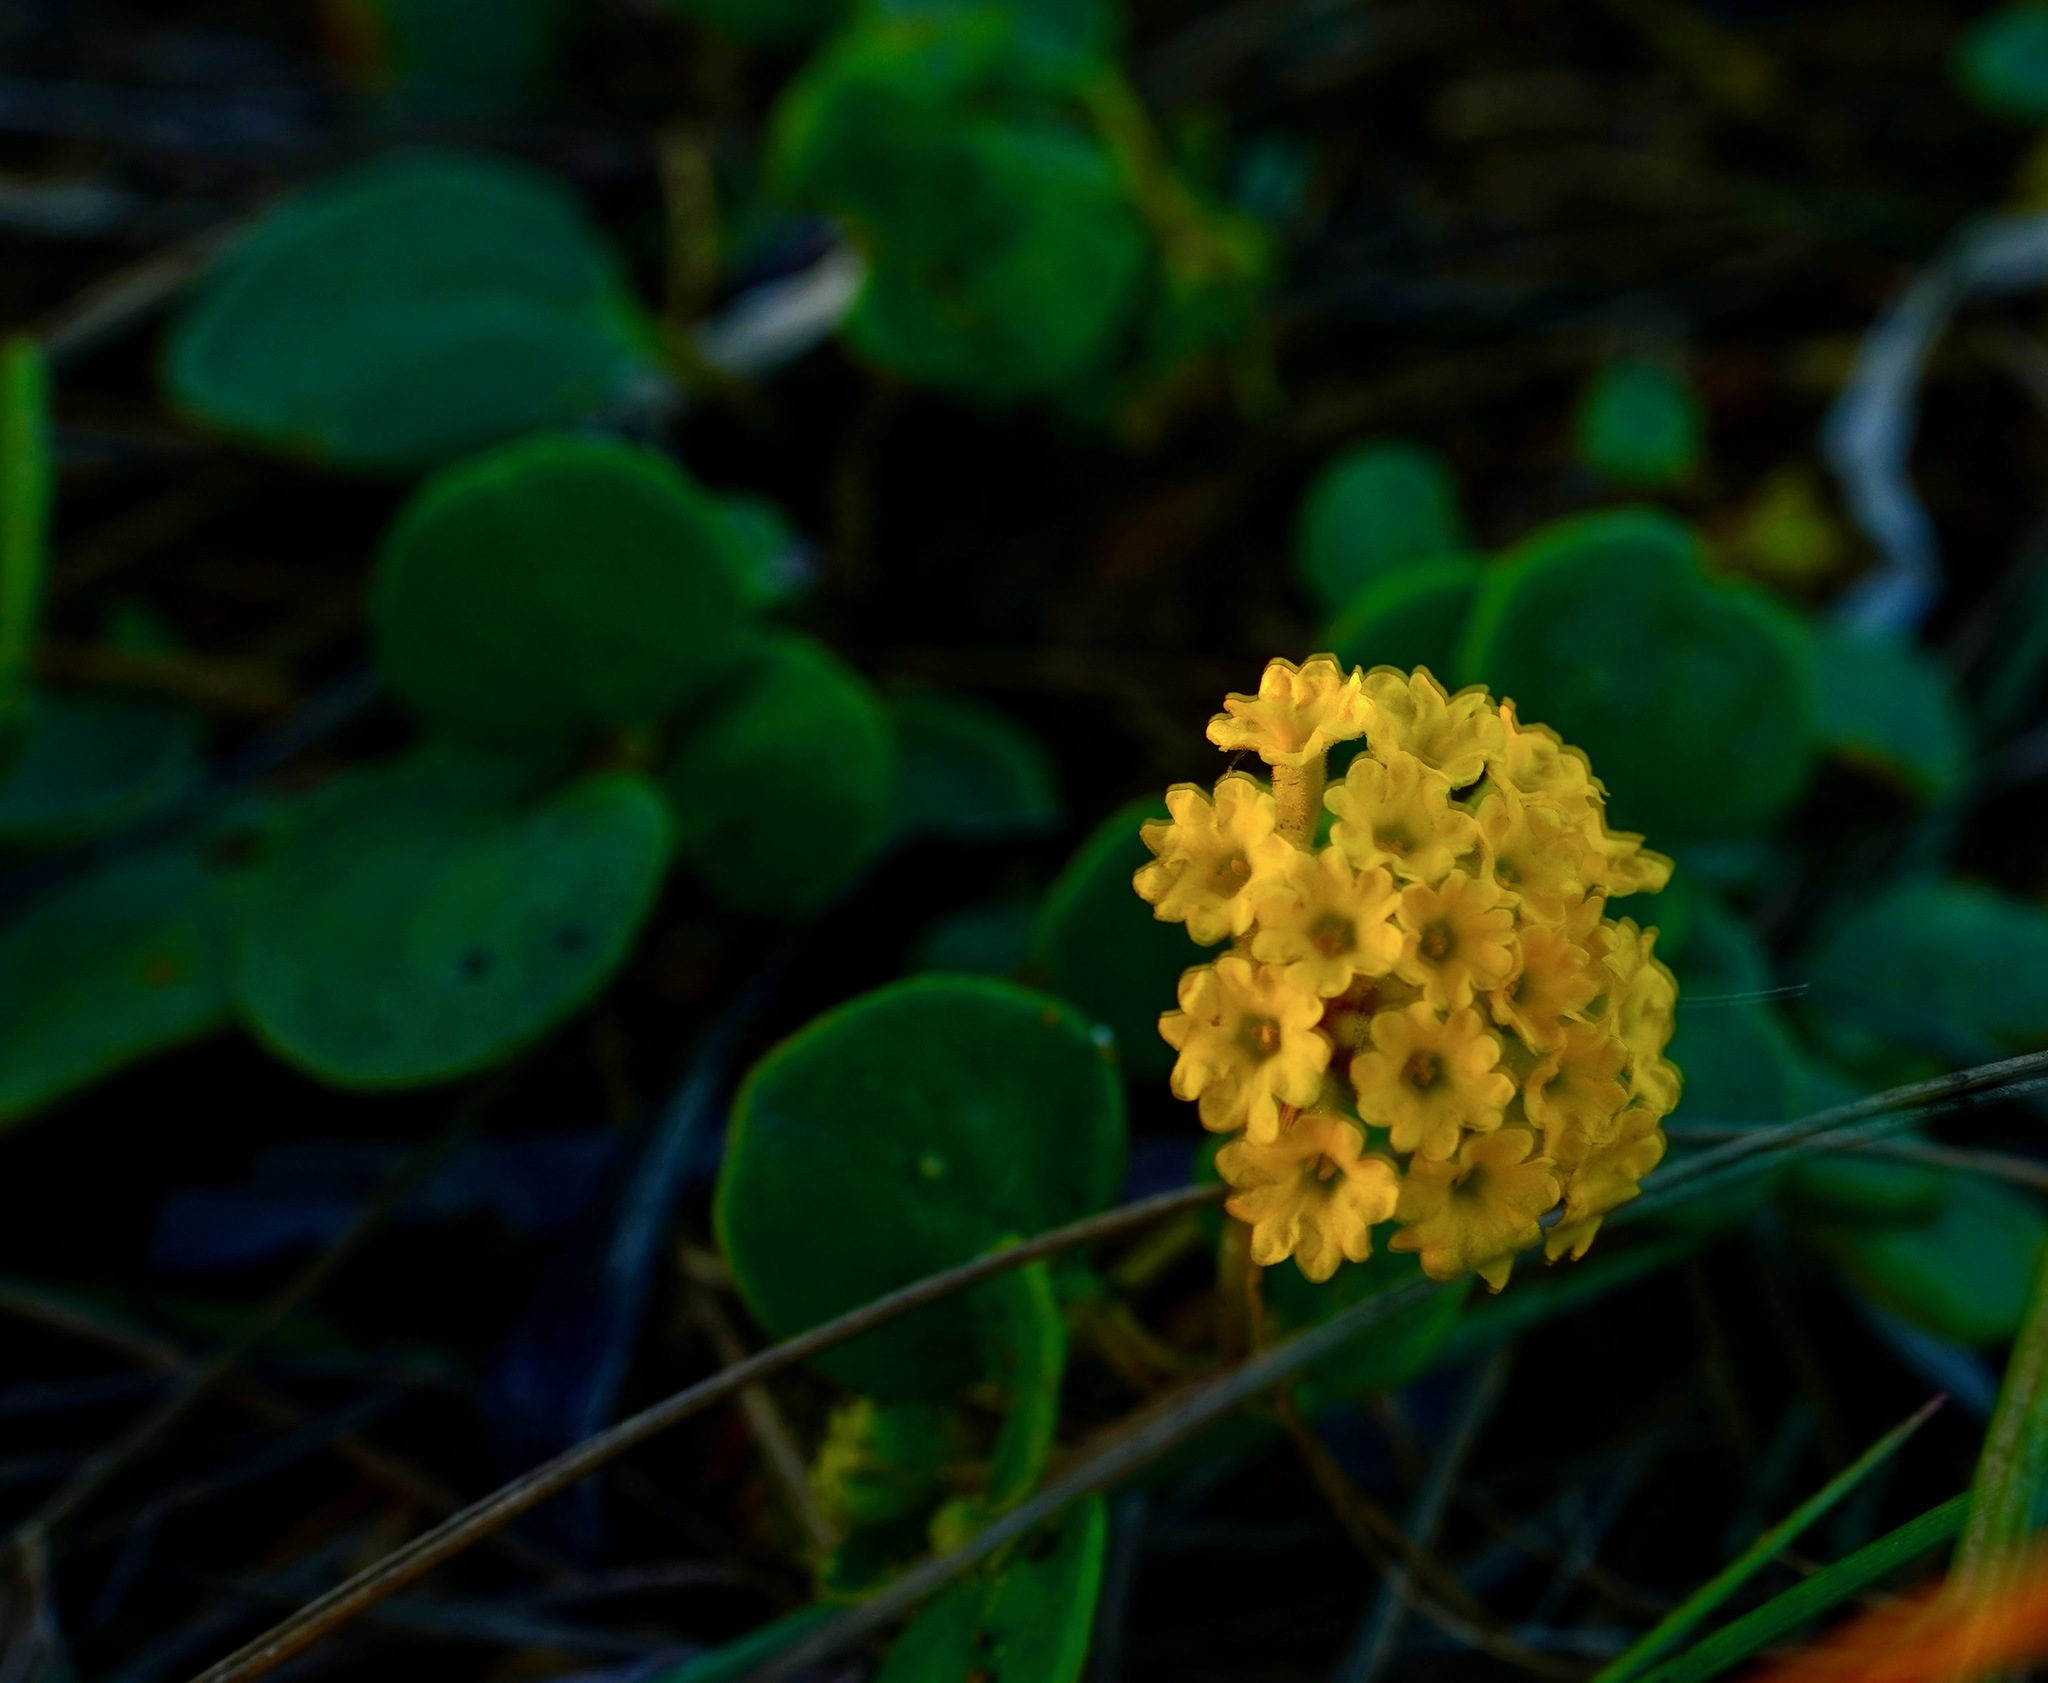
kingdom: Plantae
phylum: Tracheophyta
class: Magnoliopsida
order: Caryophyllales
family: Nyctaginaceae
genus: Abronia
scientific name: Abronia latifolia
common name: Yellow sand-verbena
